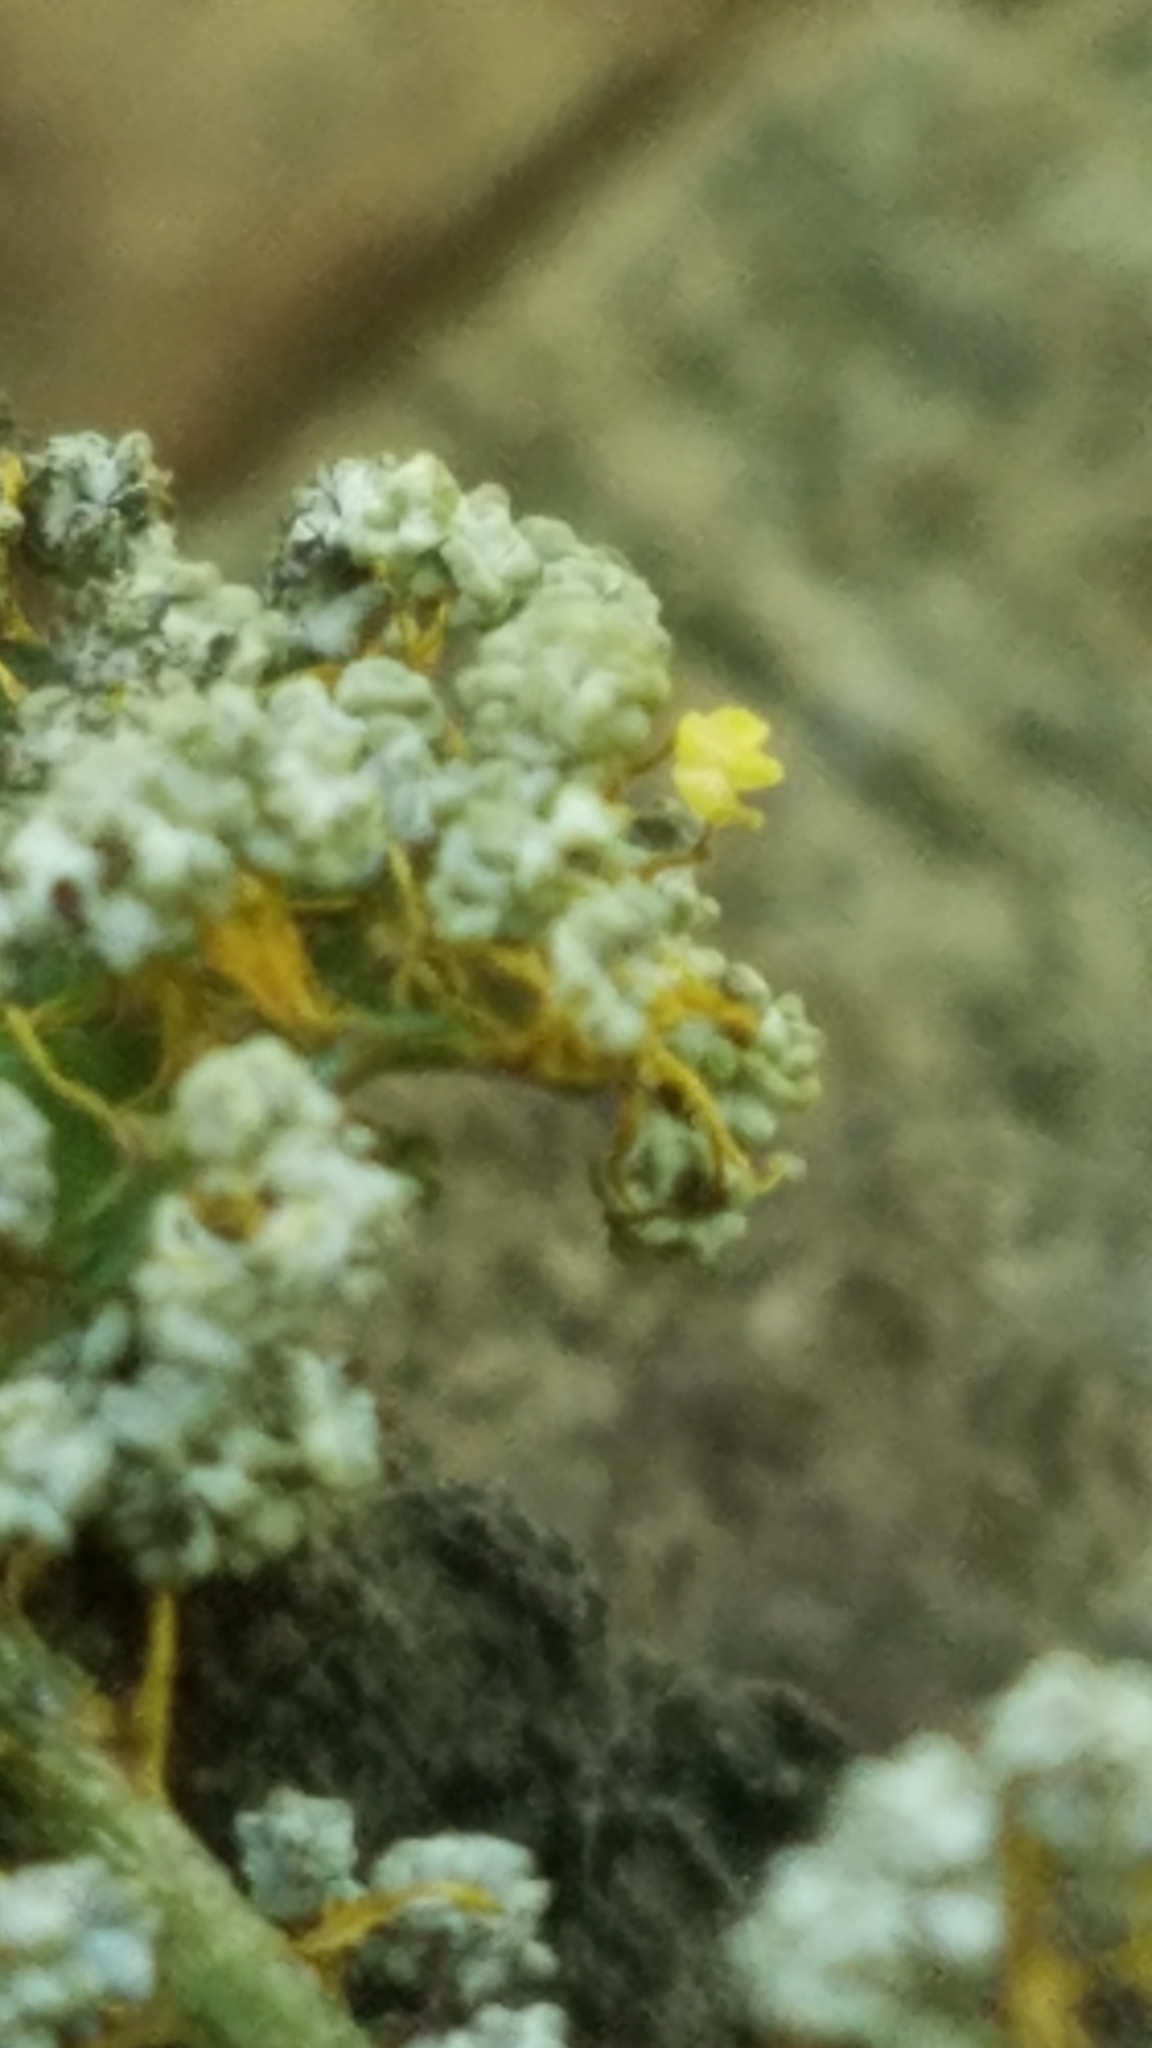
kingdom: Protozoa
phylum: Mycetozoa
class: Myxomycetes
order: Physarales
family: Physaraceae
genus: Physarum
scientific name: Physarum polycephalum
